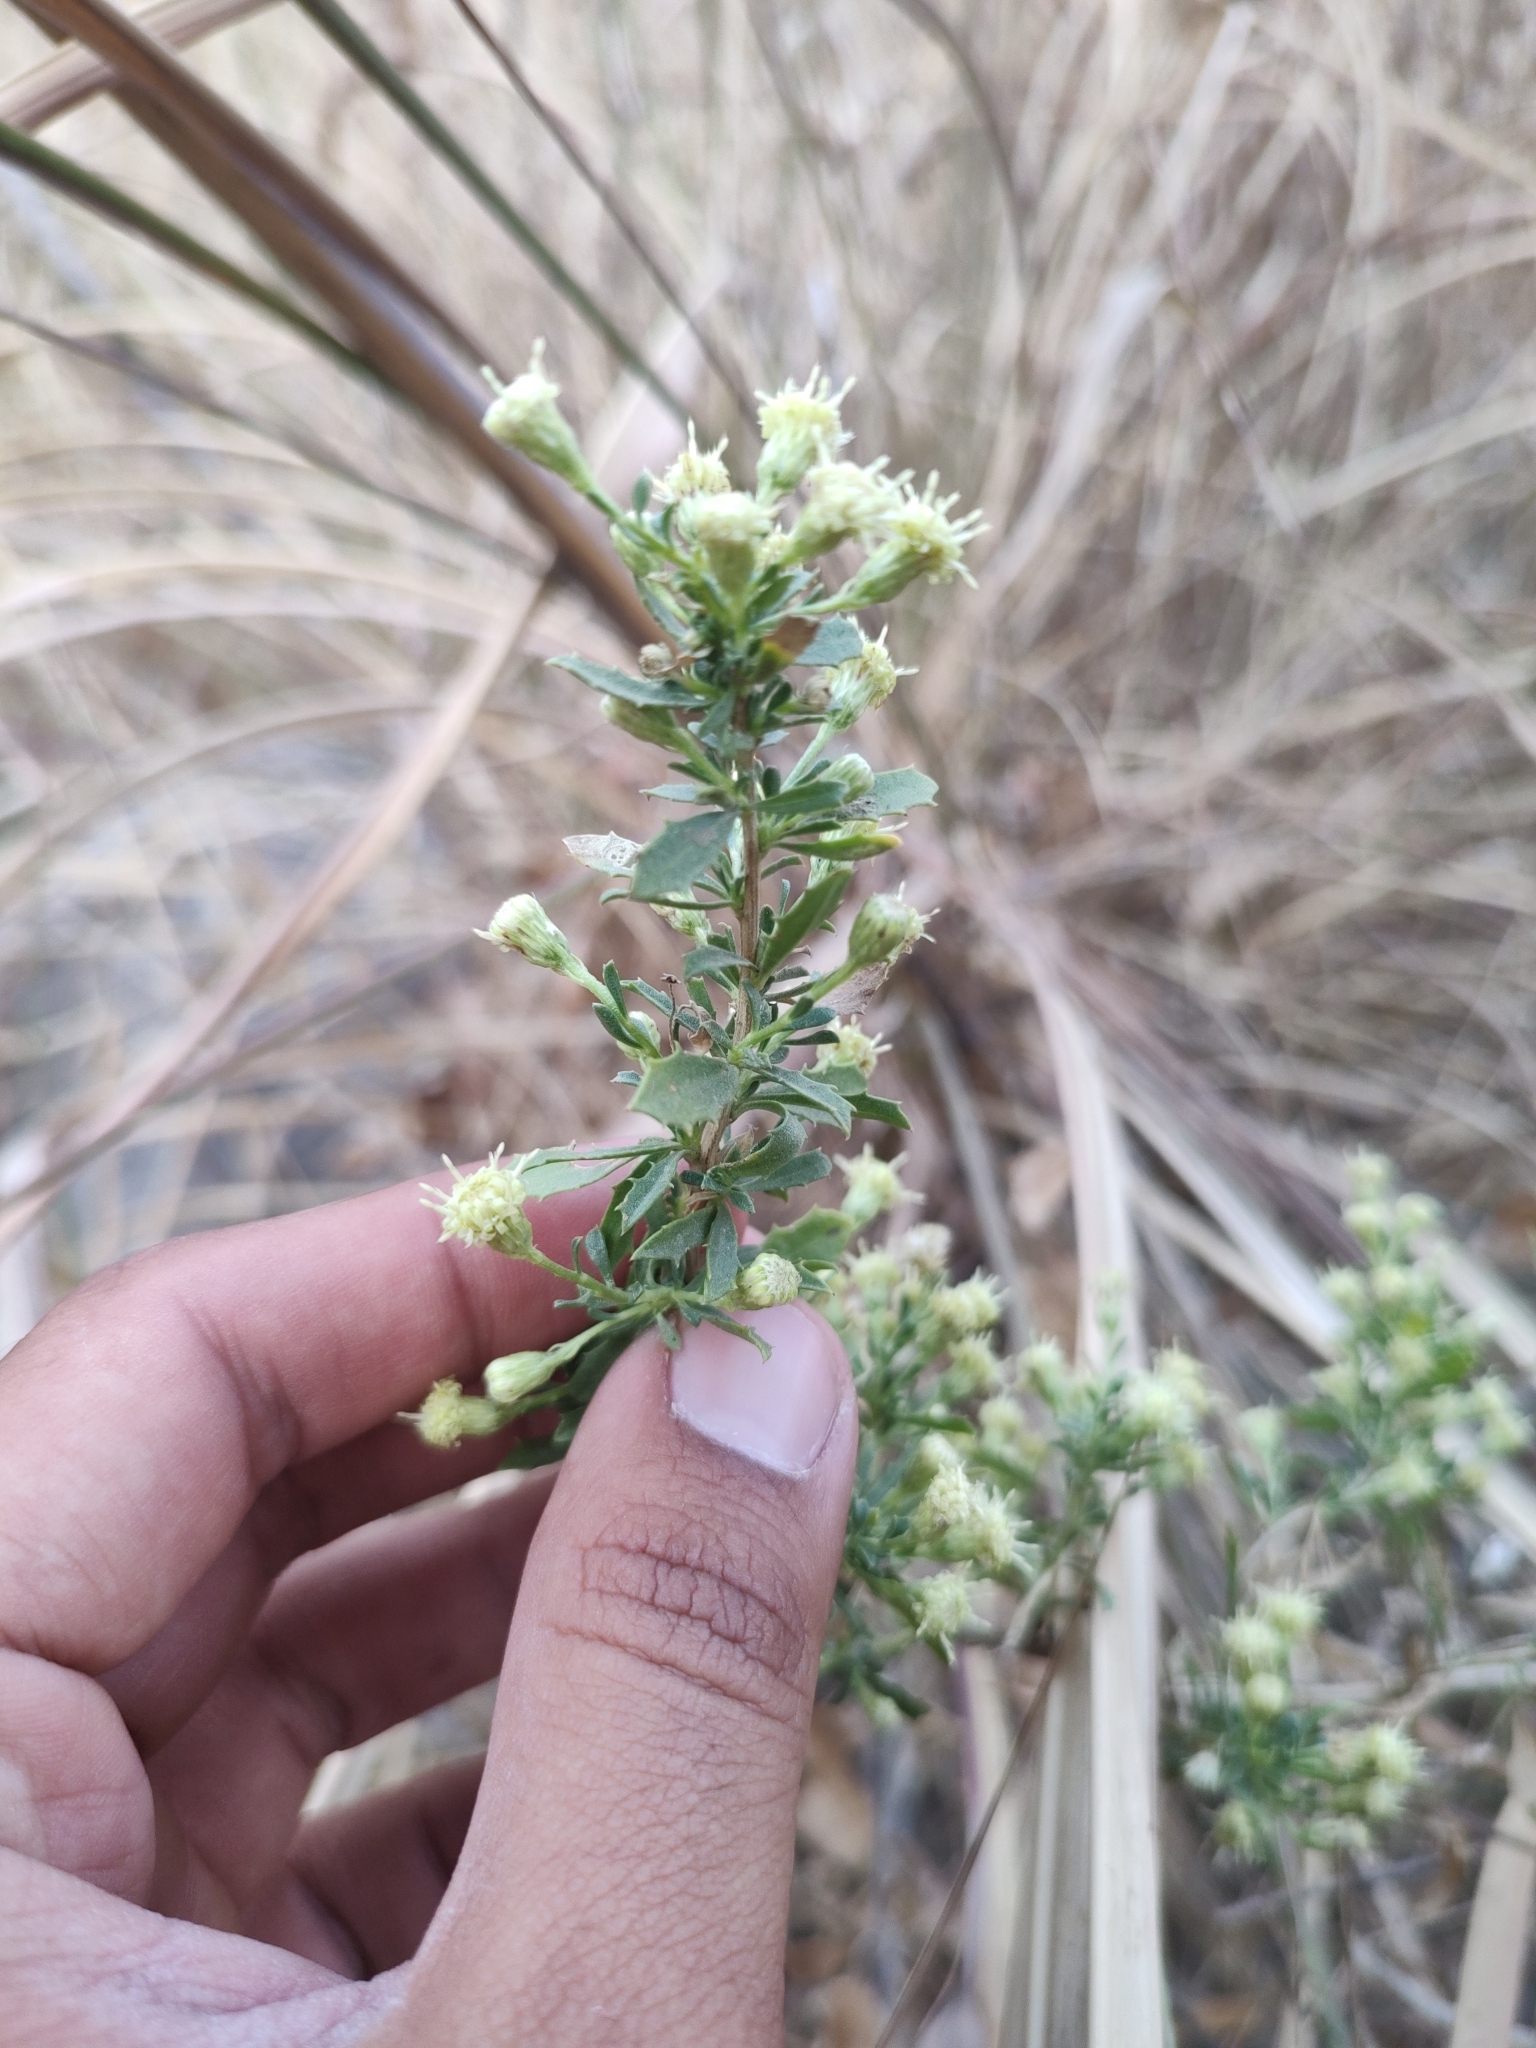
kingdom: Plantae
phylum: Tracheophyta
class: Magnoliopsida
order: Asterales
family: Asteraceae
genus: Baccharis
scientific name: Baccharis pteronioides
